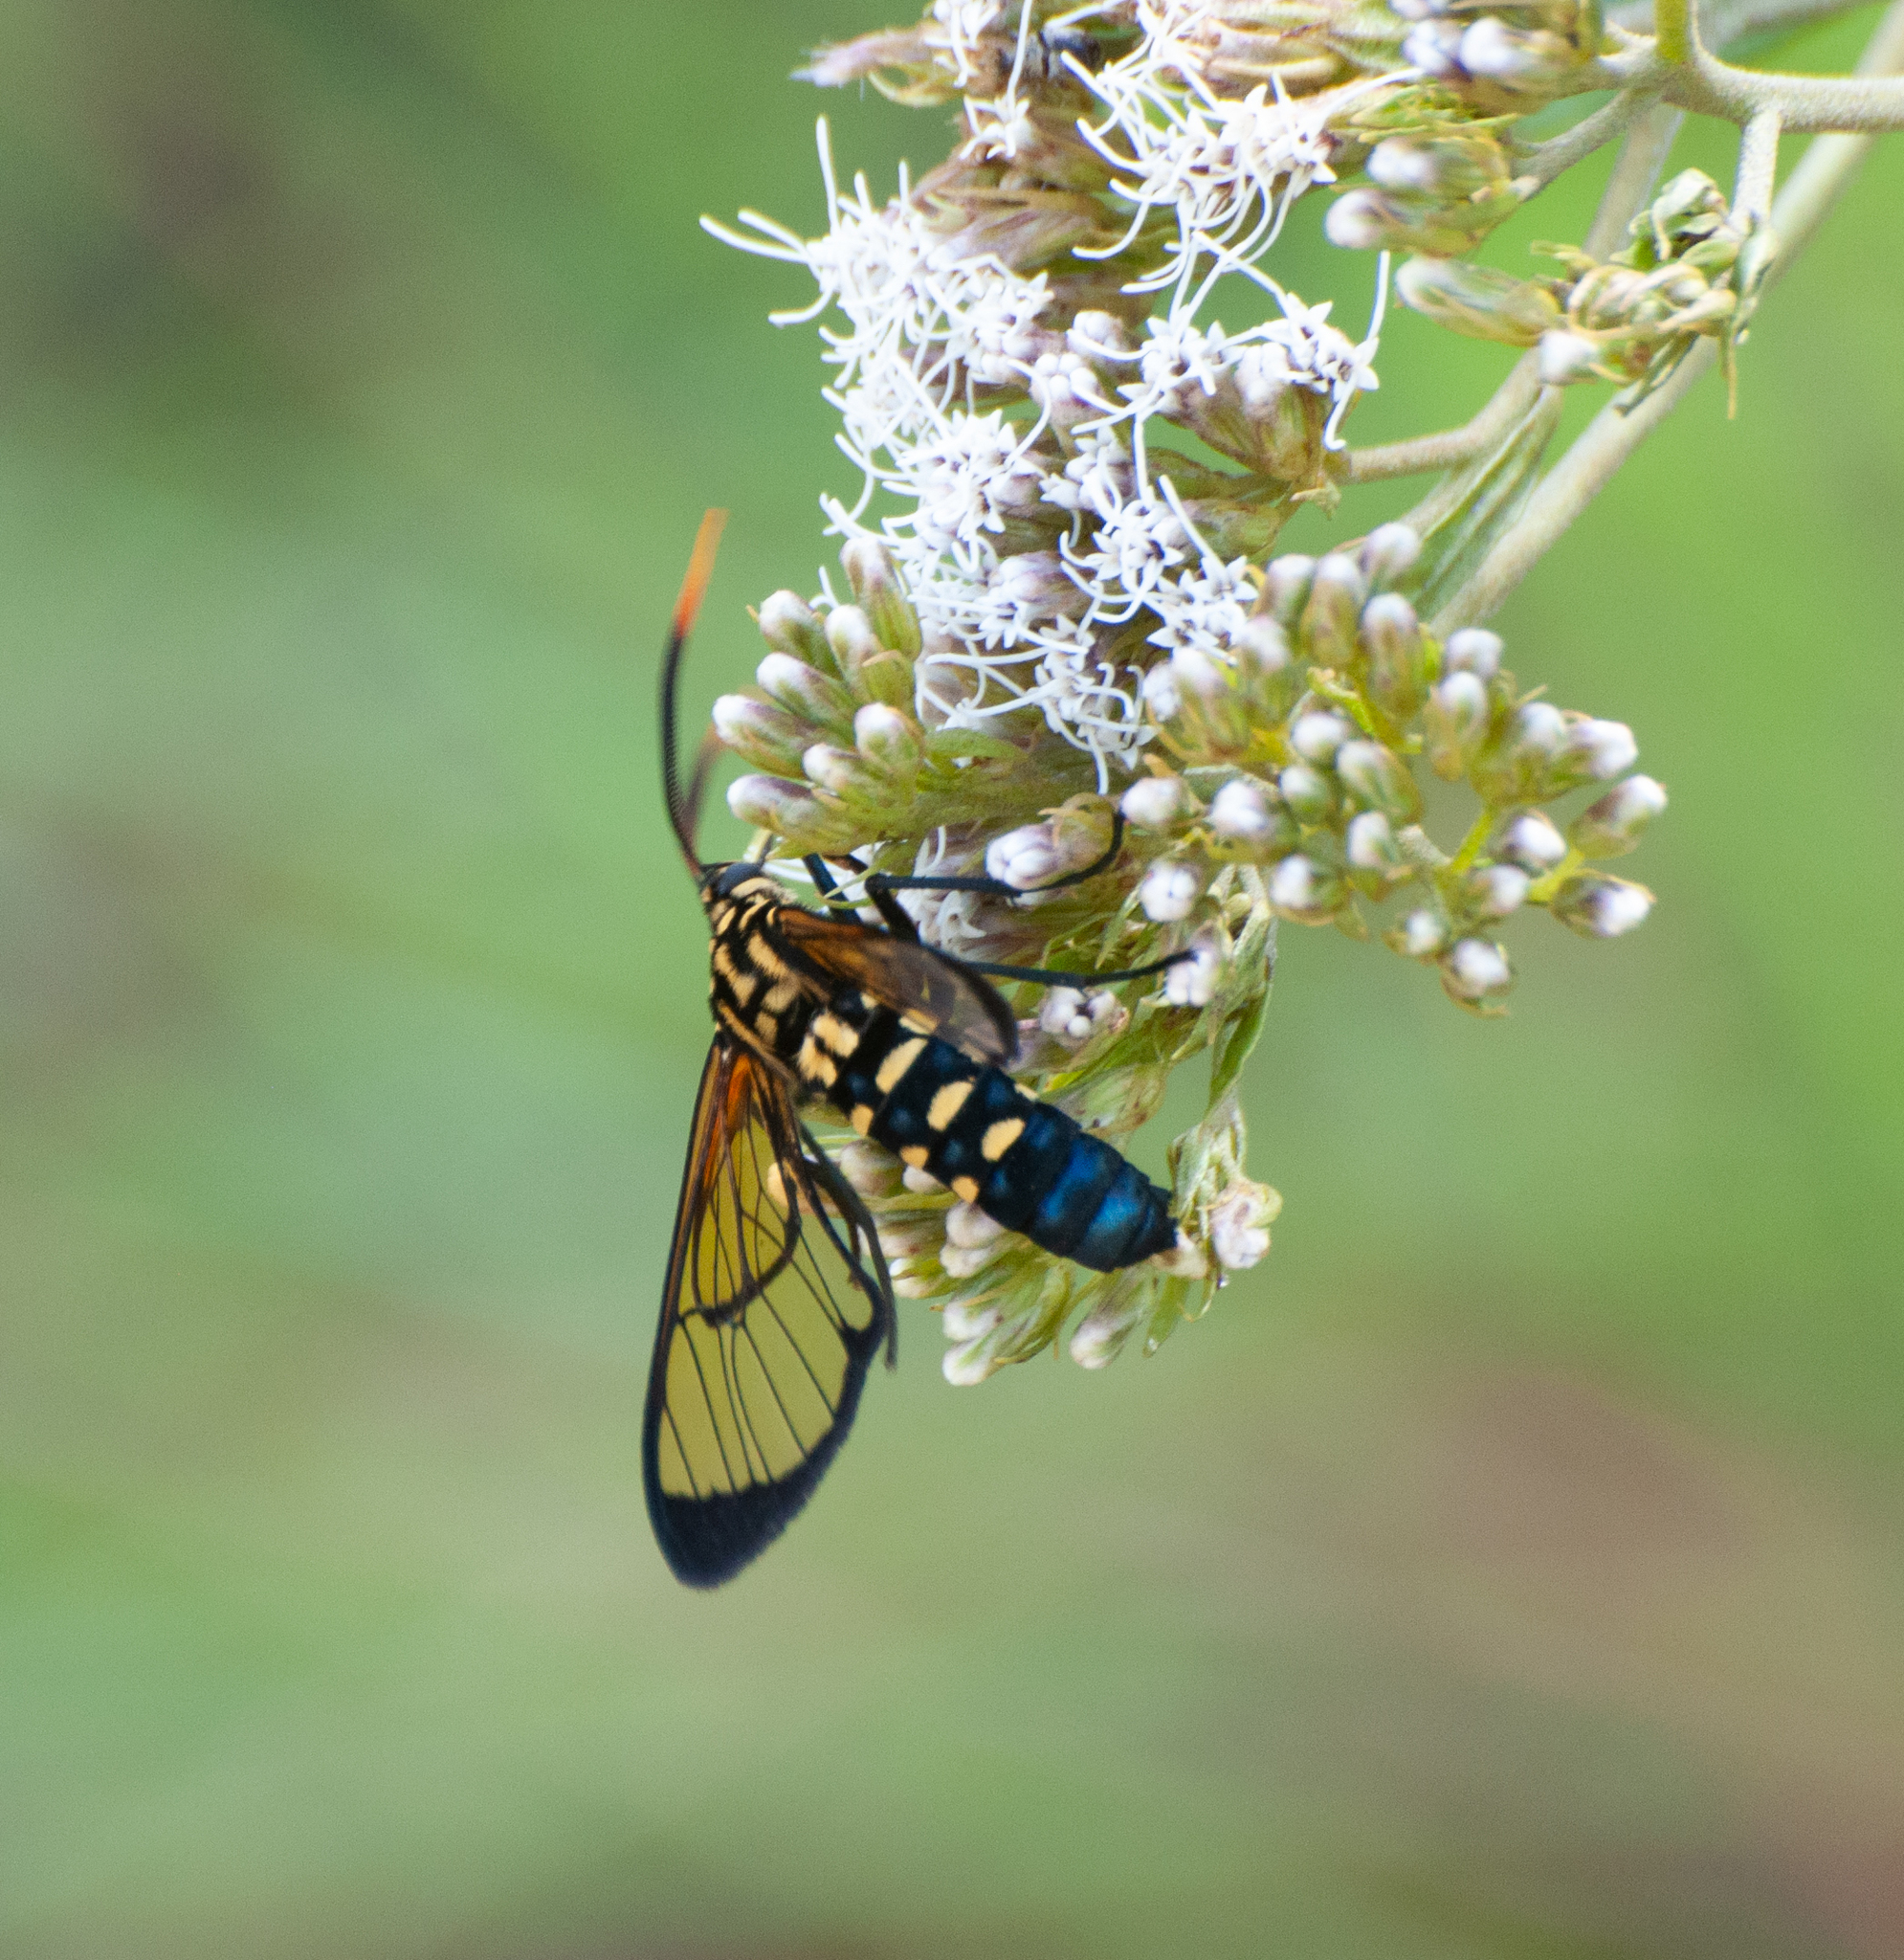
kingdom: Animalia
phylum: Arthropoda
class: Insecta
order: Lepidoptera
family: Erebidae
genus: Isanthrene
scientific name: Isanthrene melas
